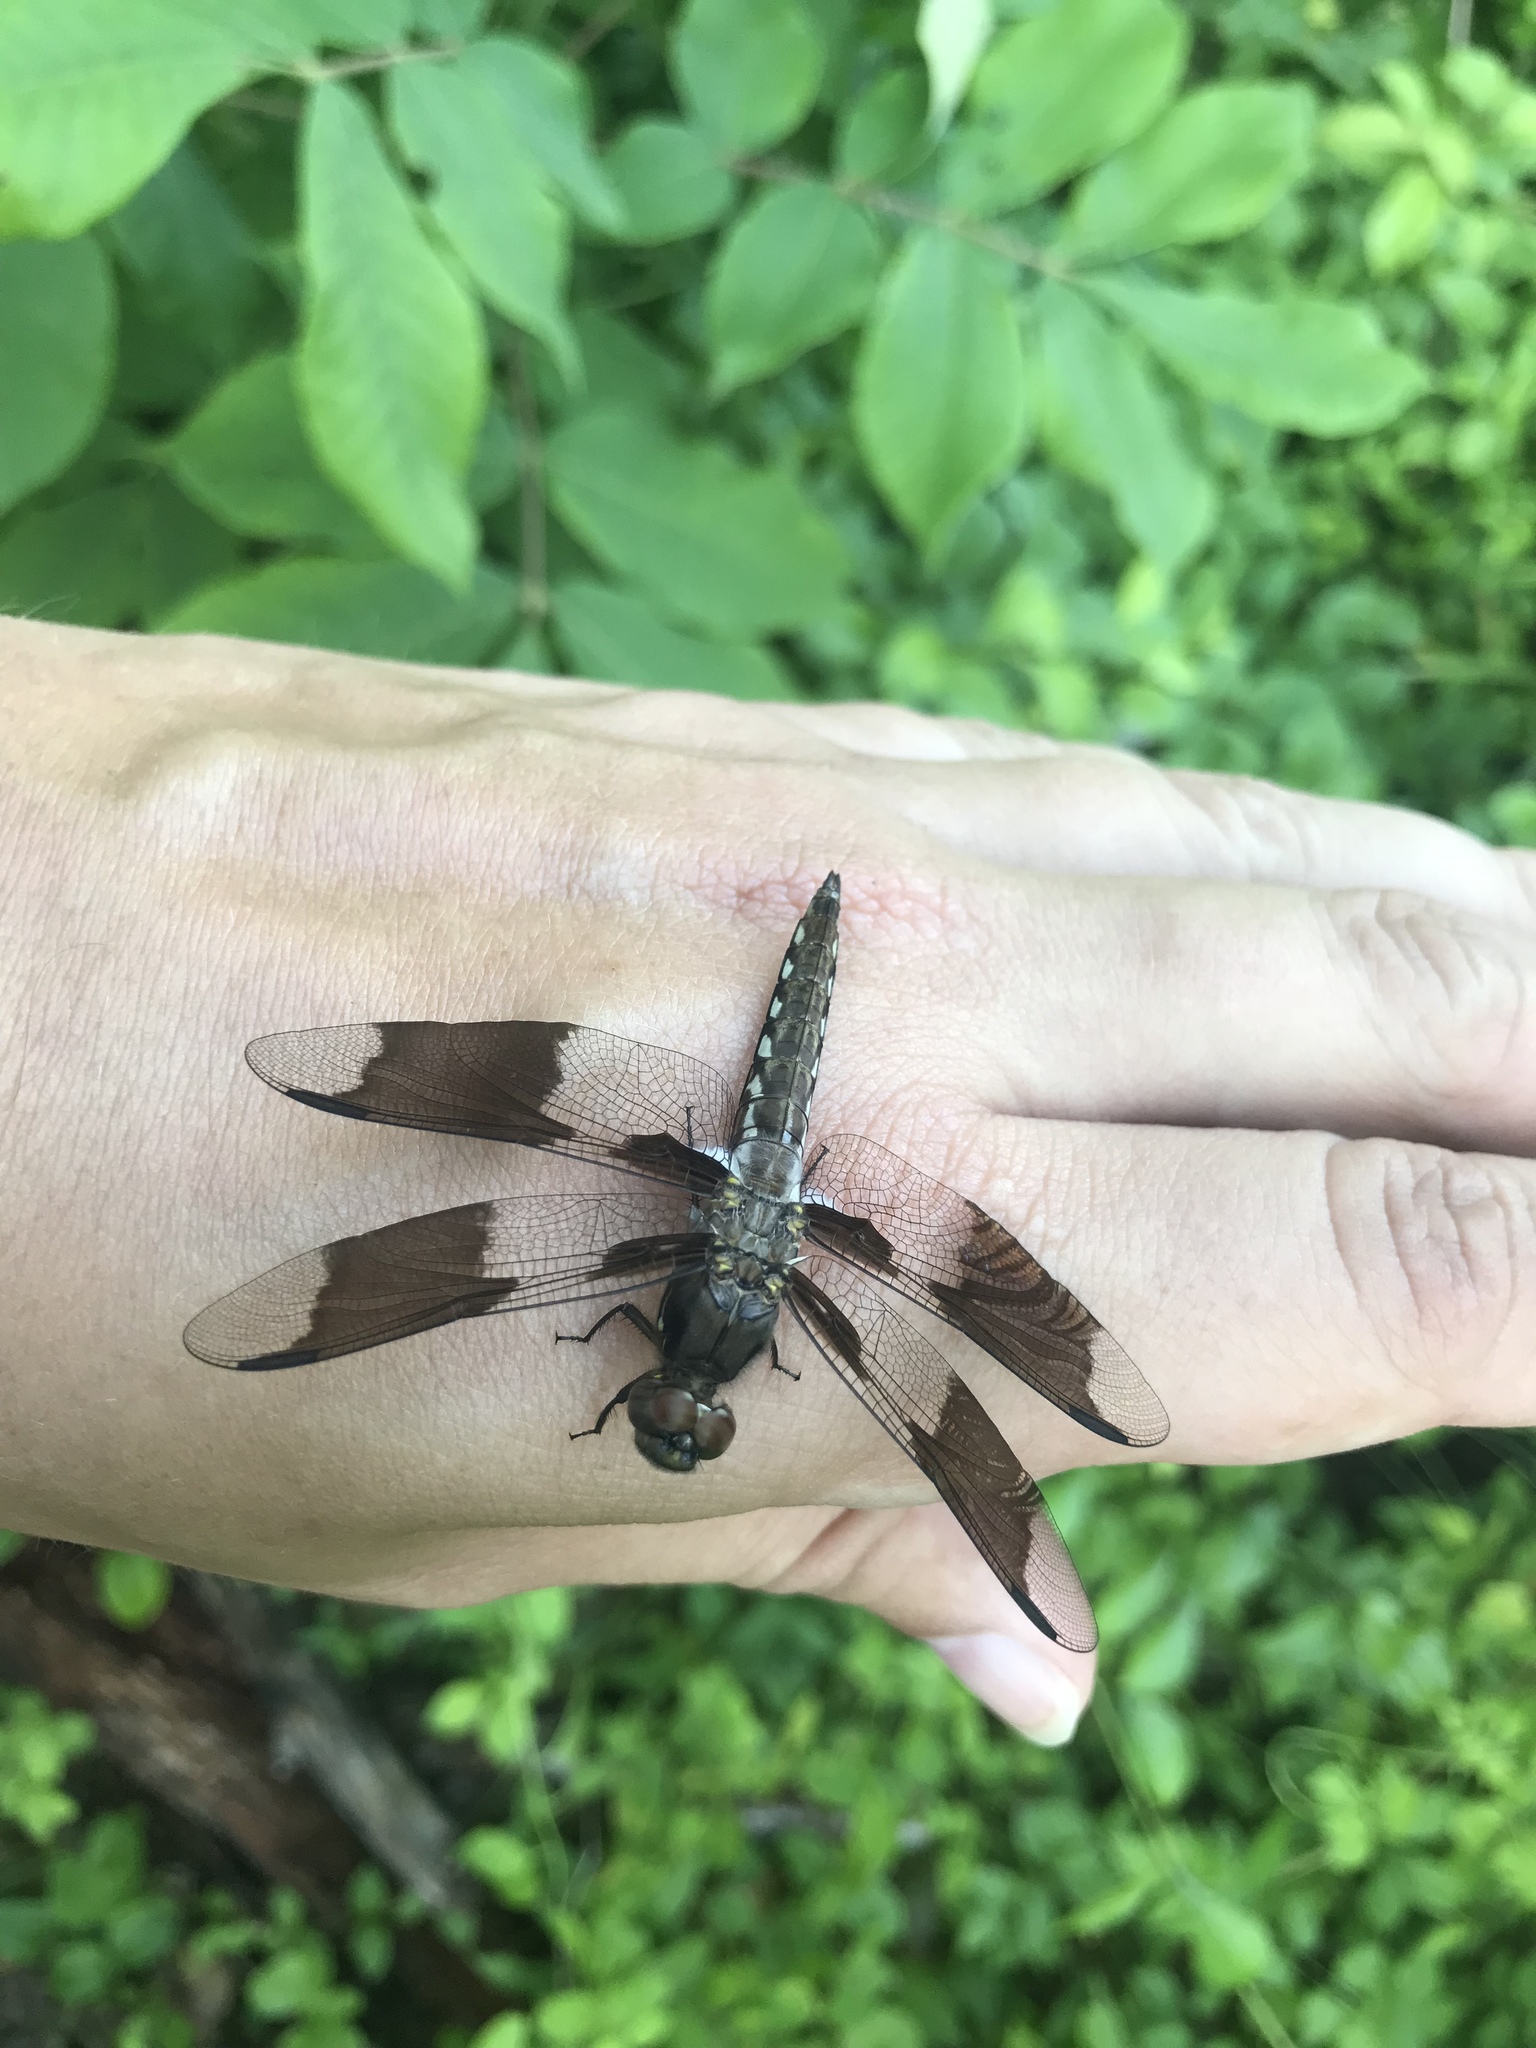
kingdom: Animalia
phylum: Arthropoda
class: Insecta
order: Odonata
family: Libellulidae
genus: Plathemis
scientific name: Plathemis lydia
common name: Common whitetail
